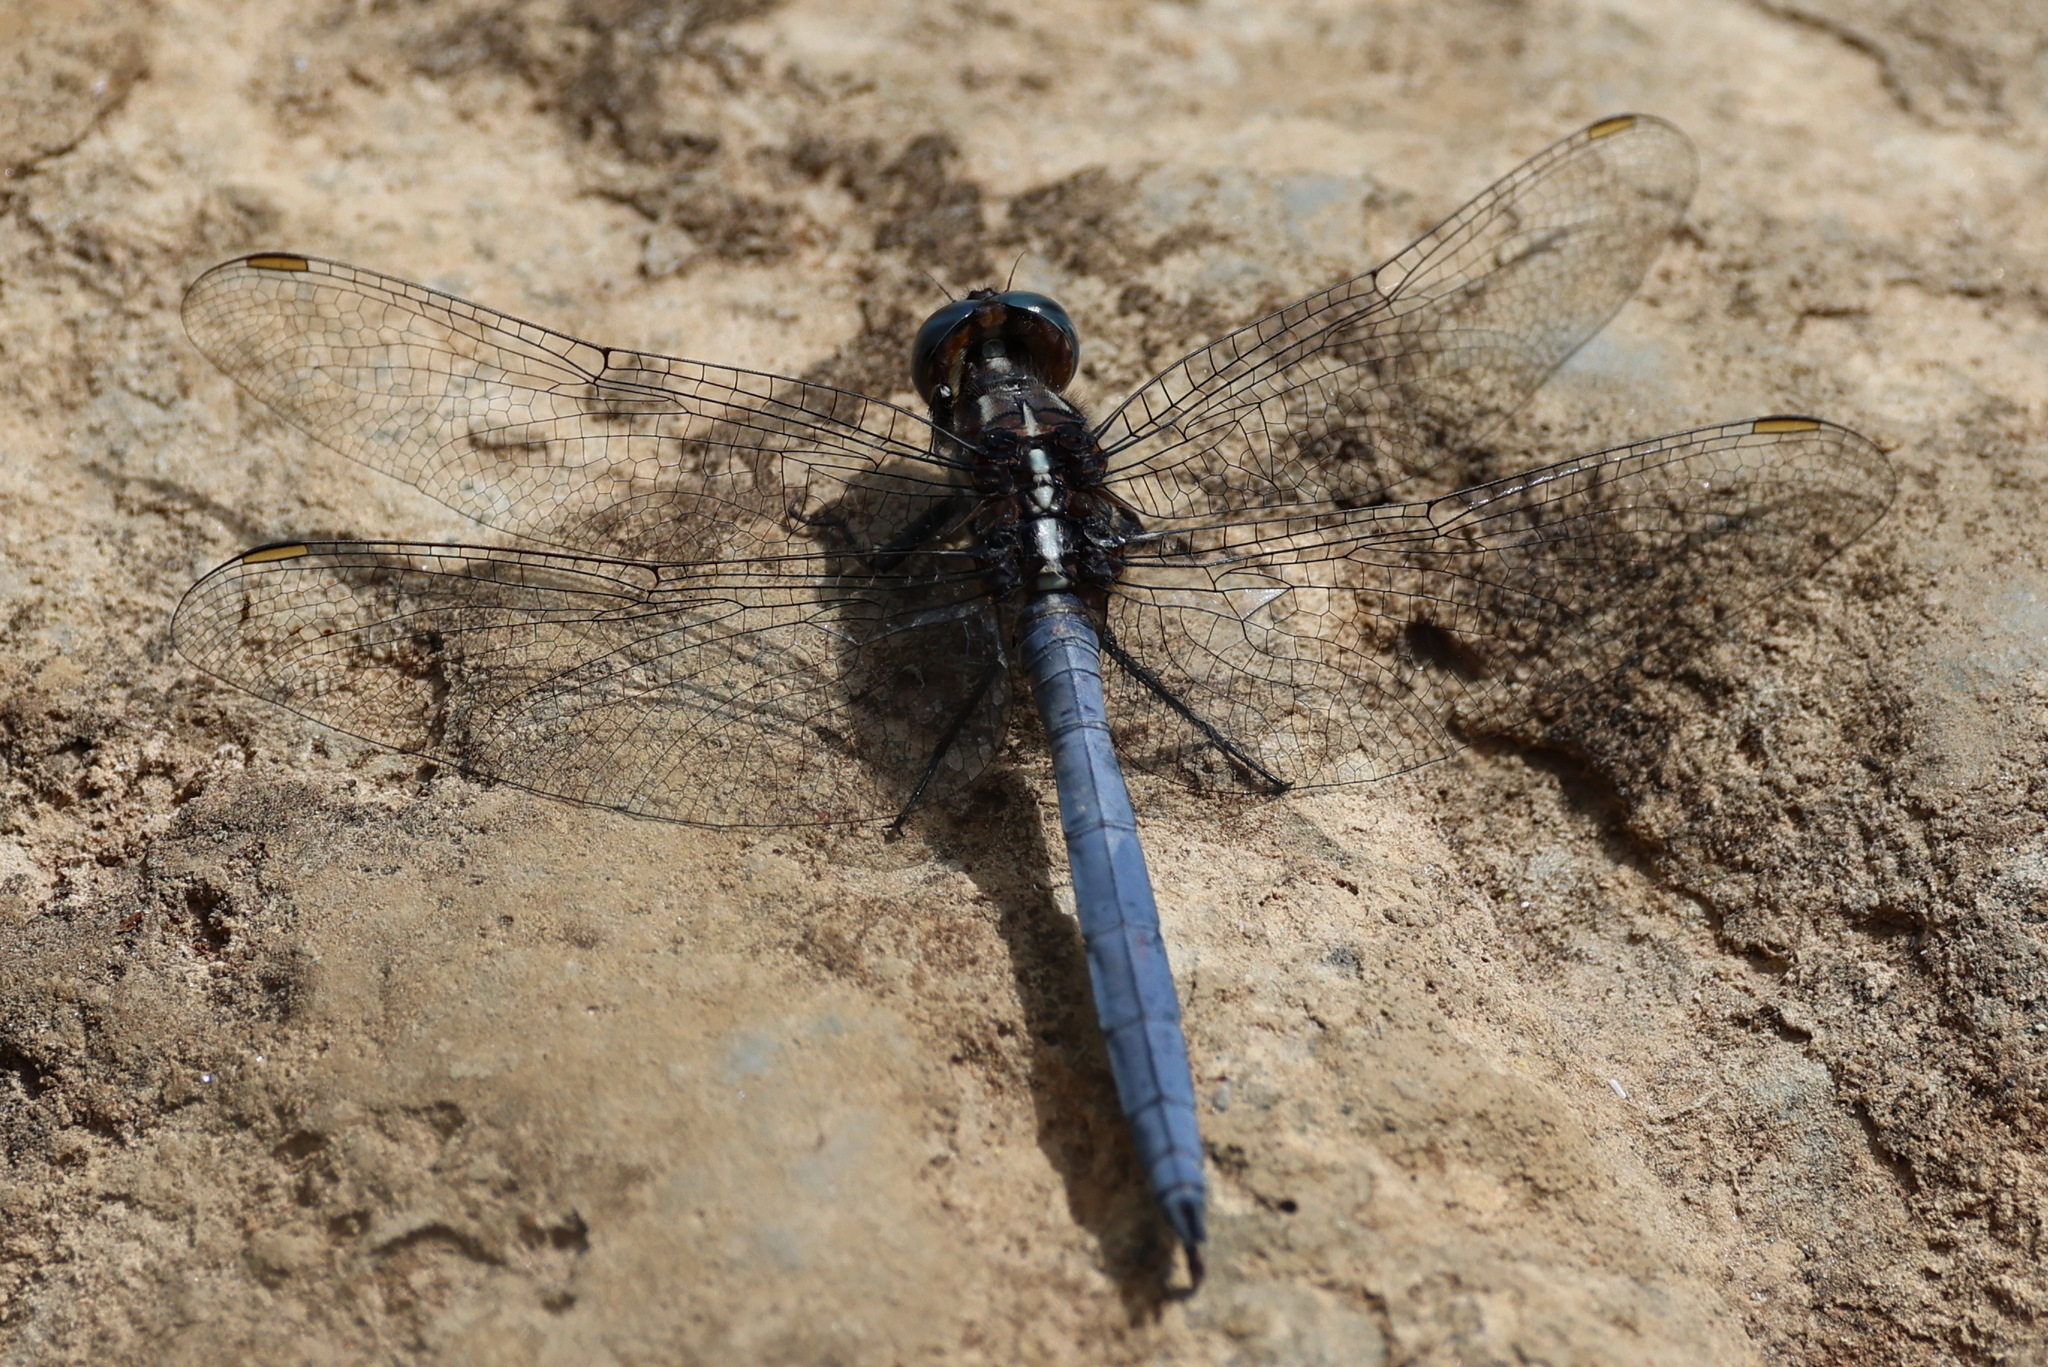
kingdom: Animalia
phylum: Arthropoda
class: Insecta
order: Odonata
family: Libellulidae
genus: Orthetrum
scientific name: Orthetrum chrysostigma
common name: Epaulet skimmer
